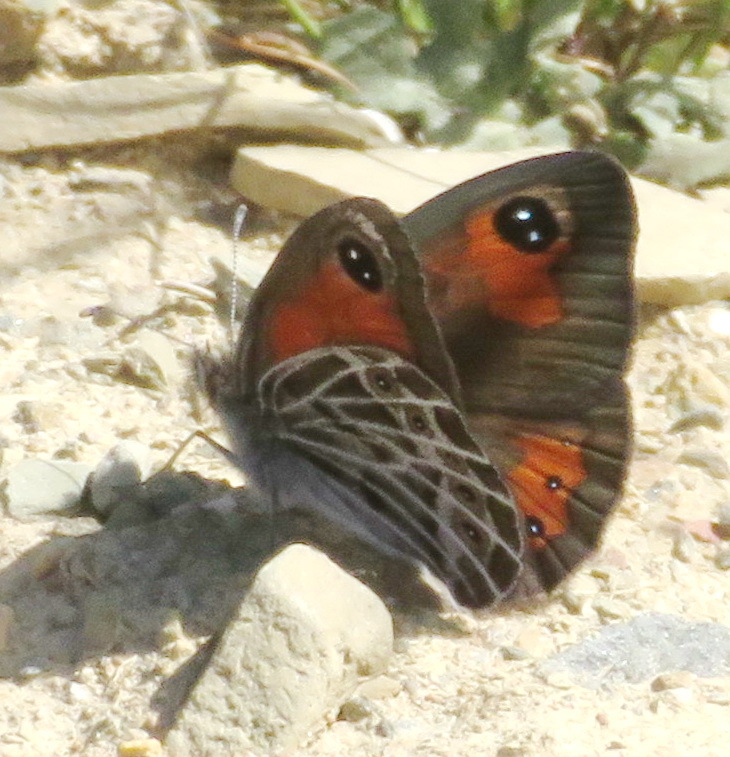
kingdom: Animalia
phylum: Arthropoda
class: Insecta
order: Lepidoptera
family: Nymphalidae
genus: Pseudonympha
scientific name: Pseudonympha trimenii
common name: Trimen’s brown
